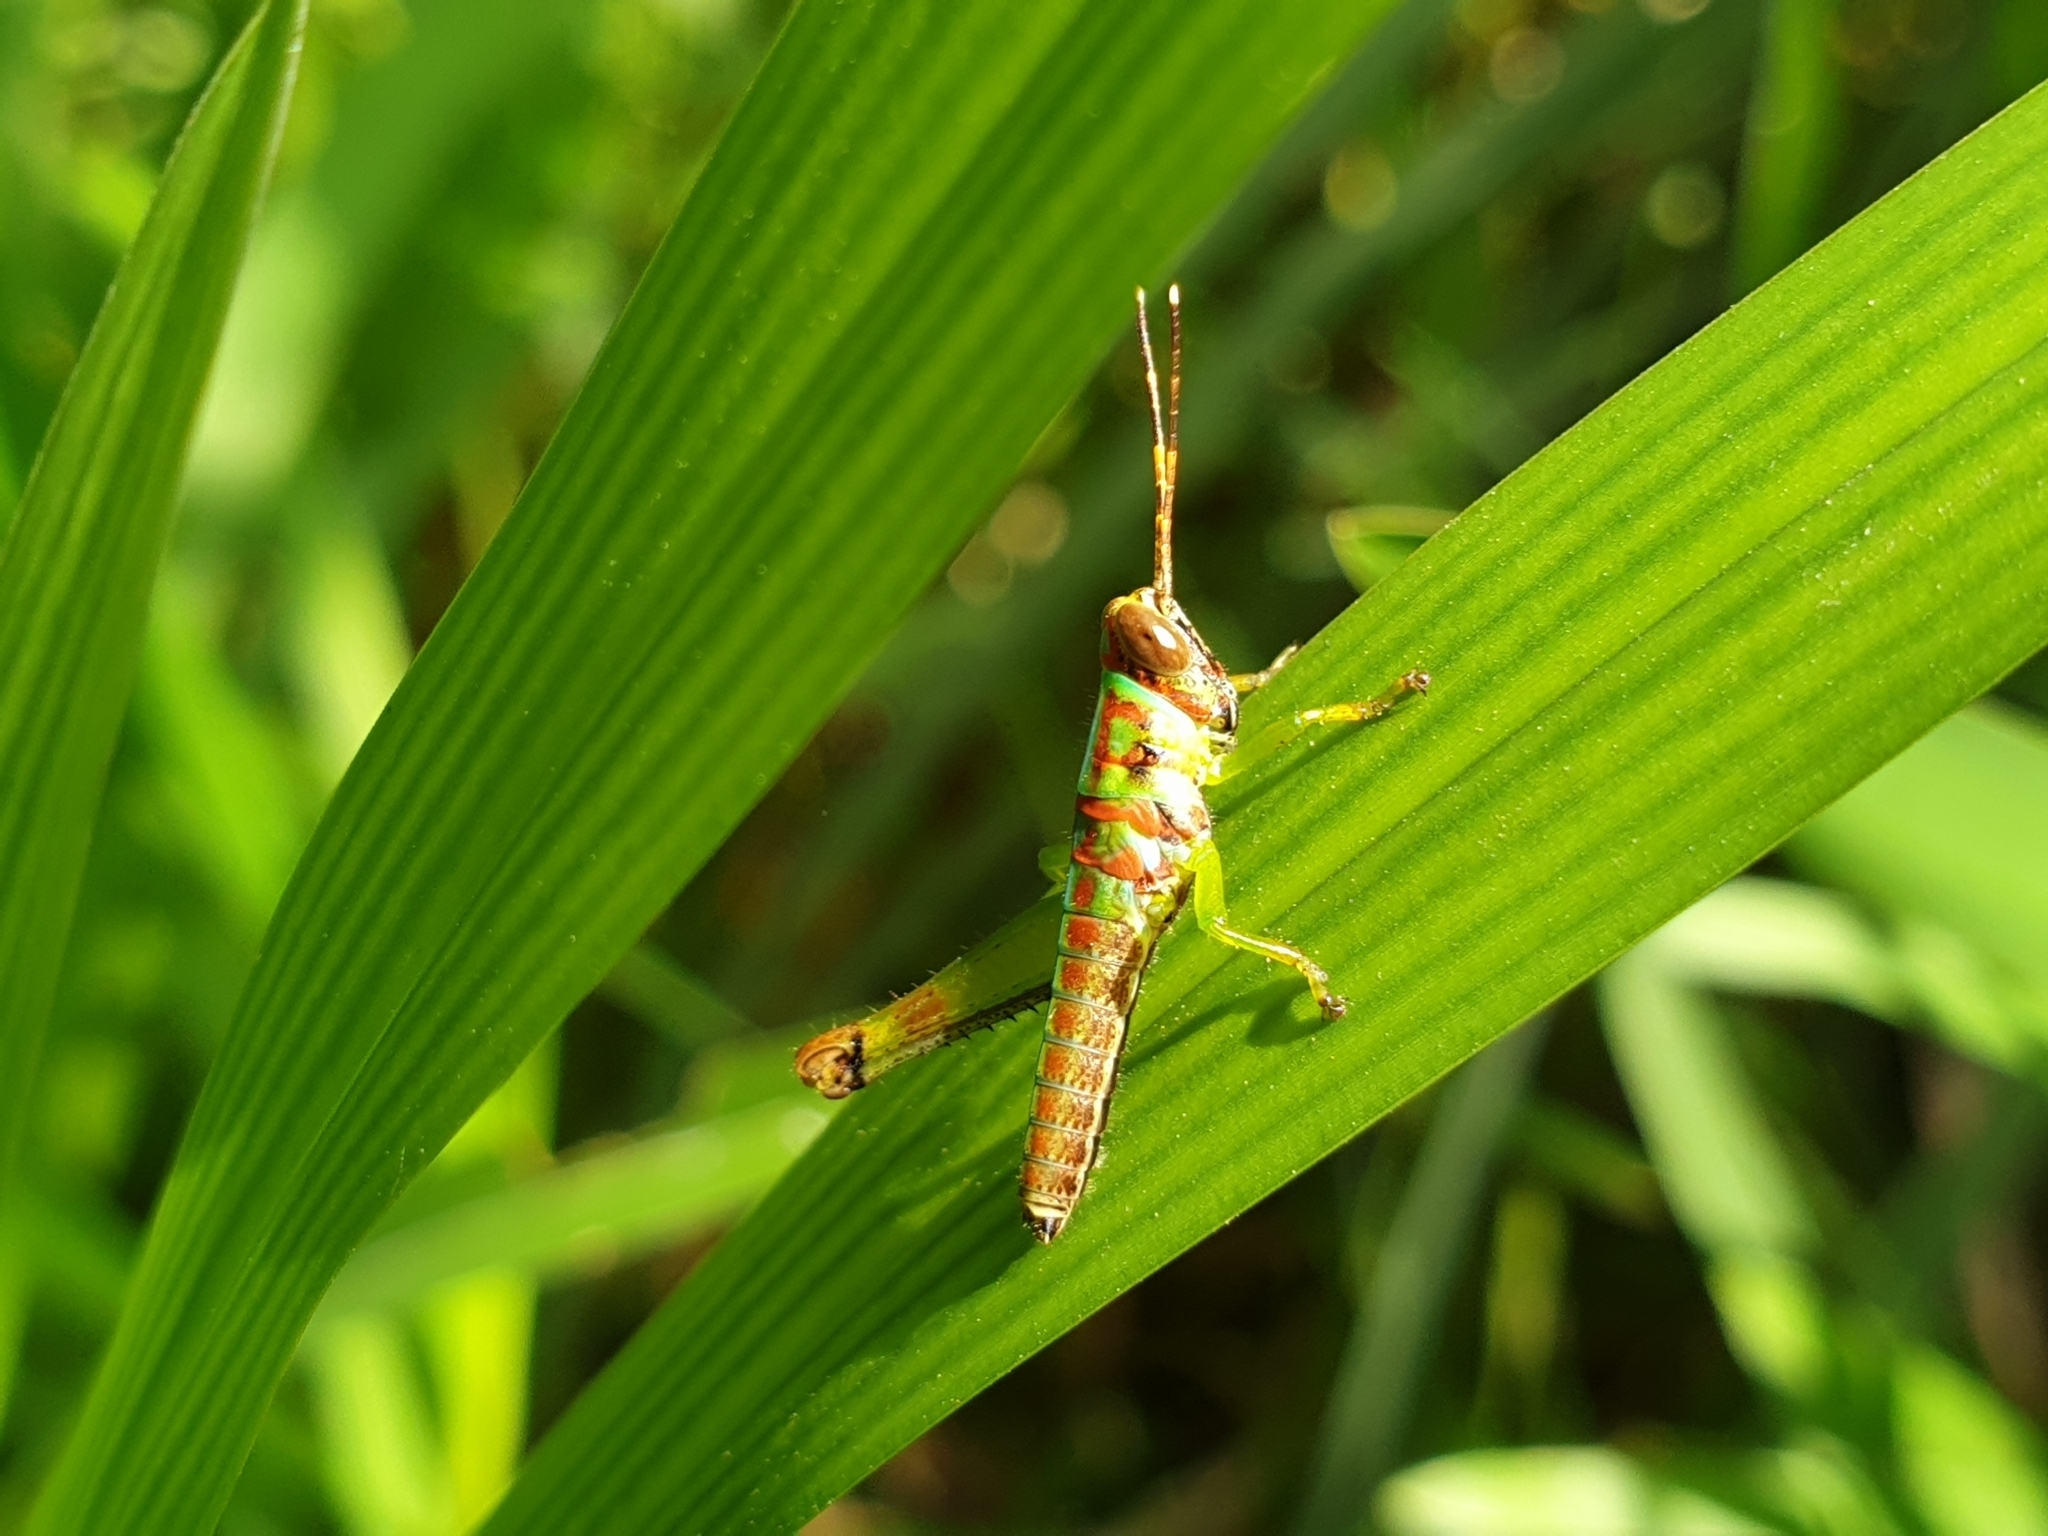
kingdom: Animalia
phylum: Arthropoda
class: Insecta
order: Orthoptera
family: Acrididae
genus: Pirithoicus
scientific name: Pirithoicus ophthalmicus
